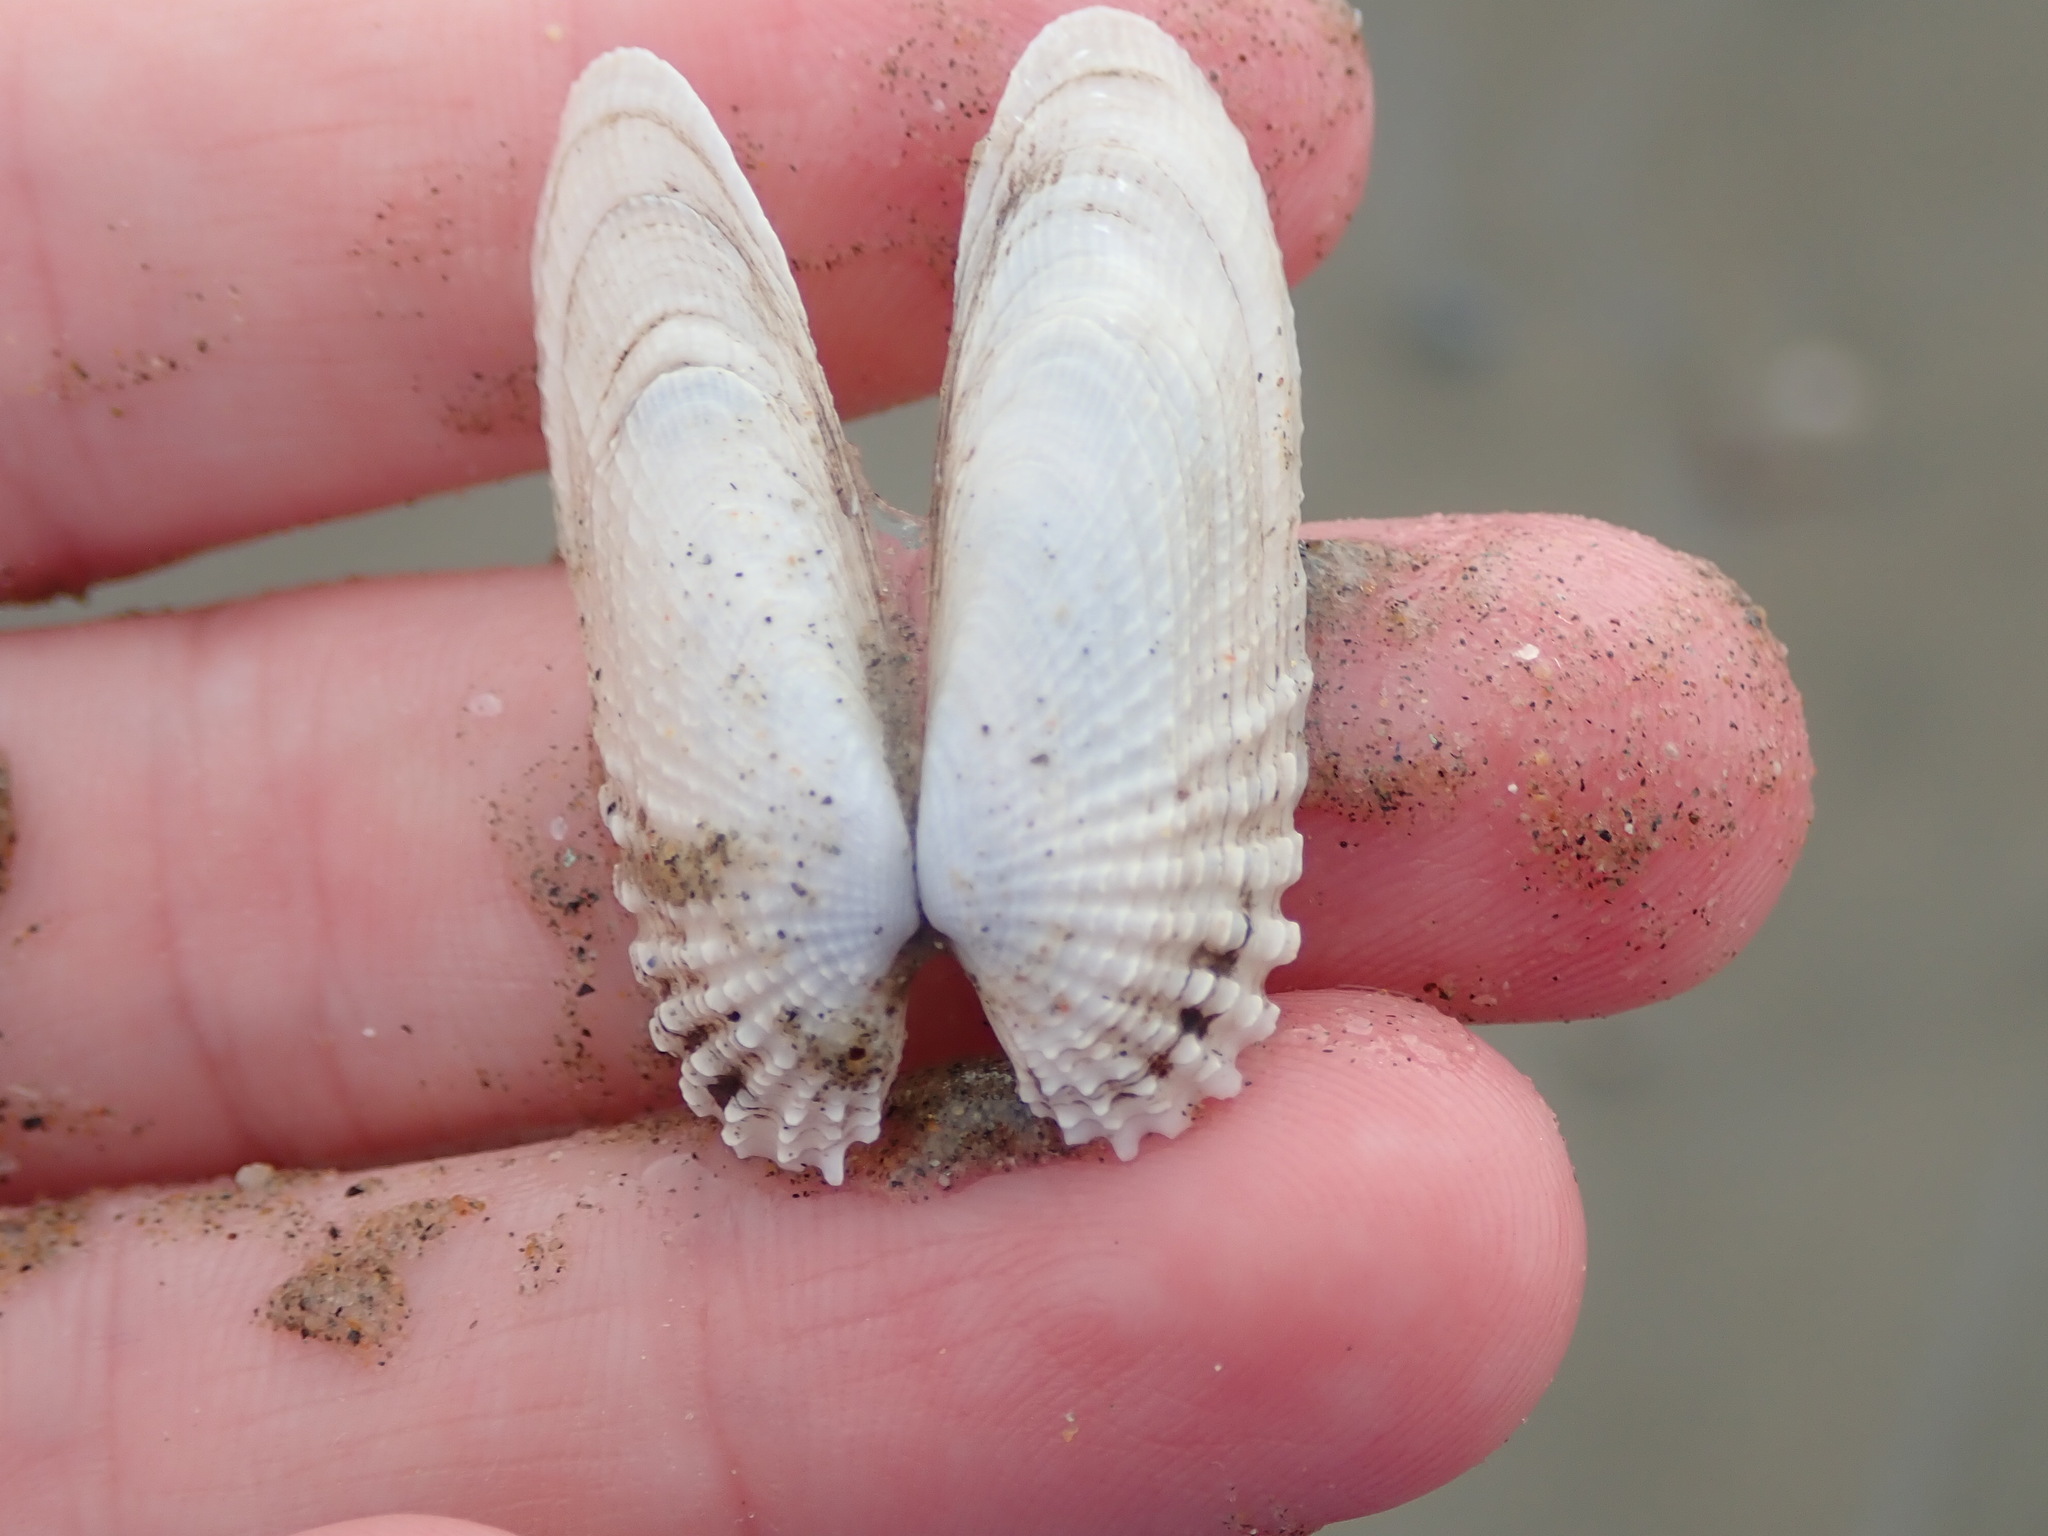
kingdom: Animalia
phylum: Mollusca
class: Bivalvia
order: Venerida
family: Veneridae
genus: Petricolaria
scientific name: Petricolaria pholadiformis
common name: American piddock
